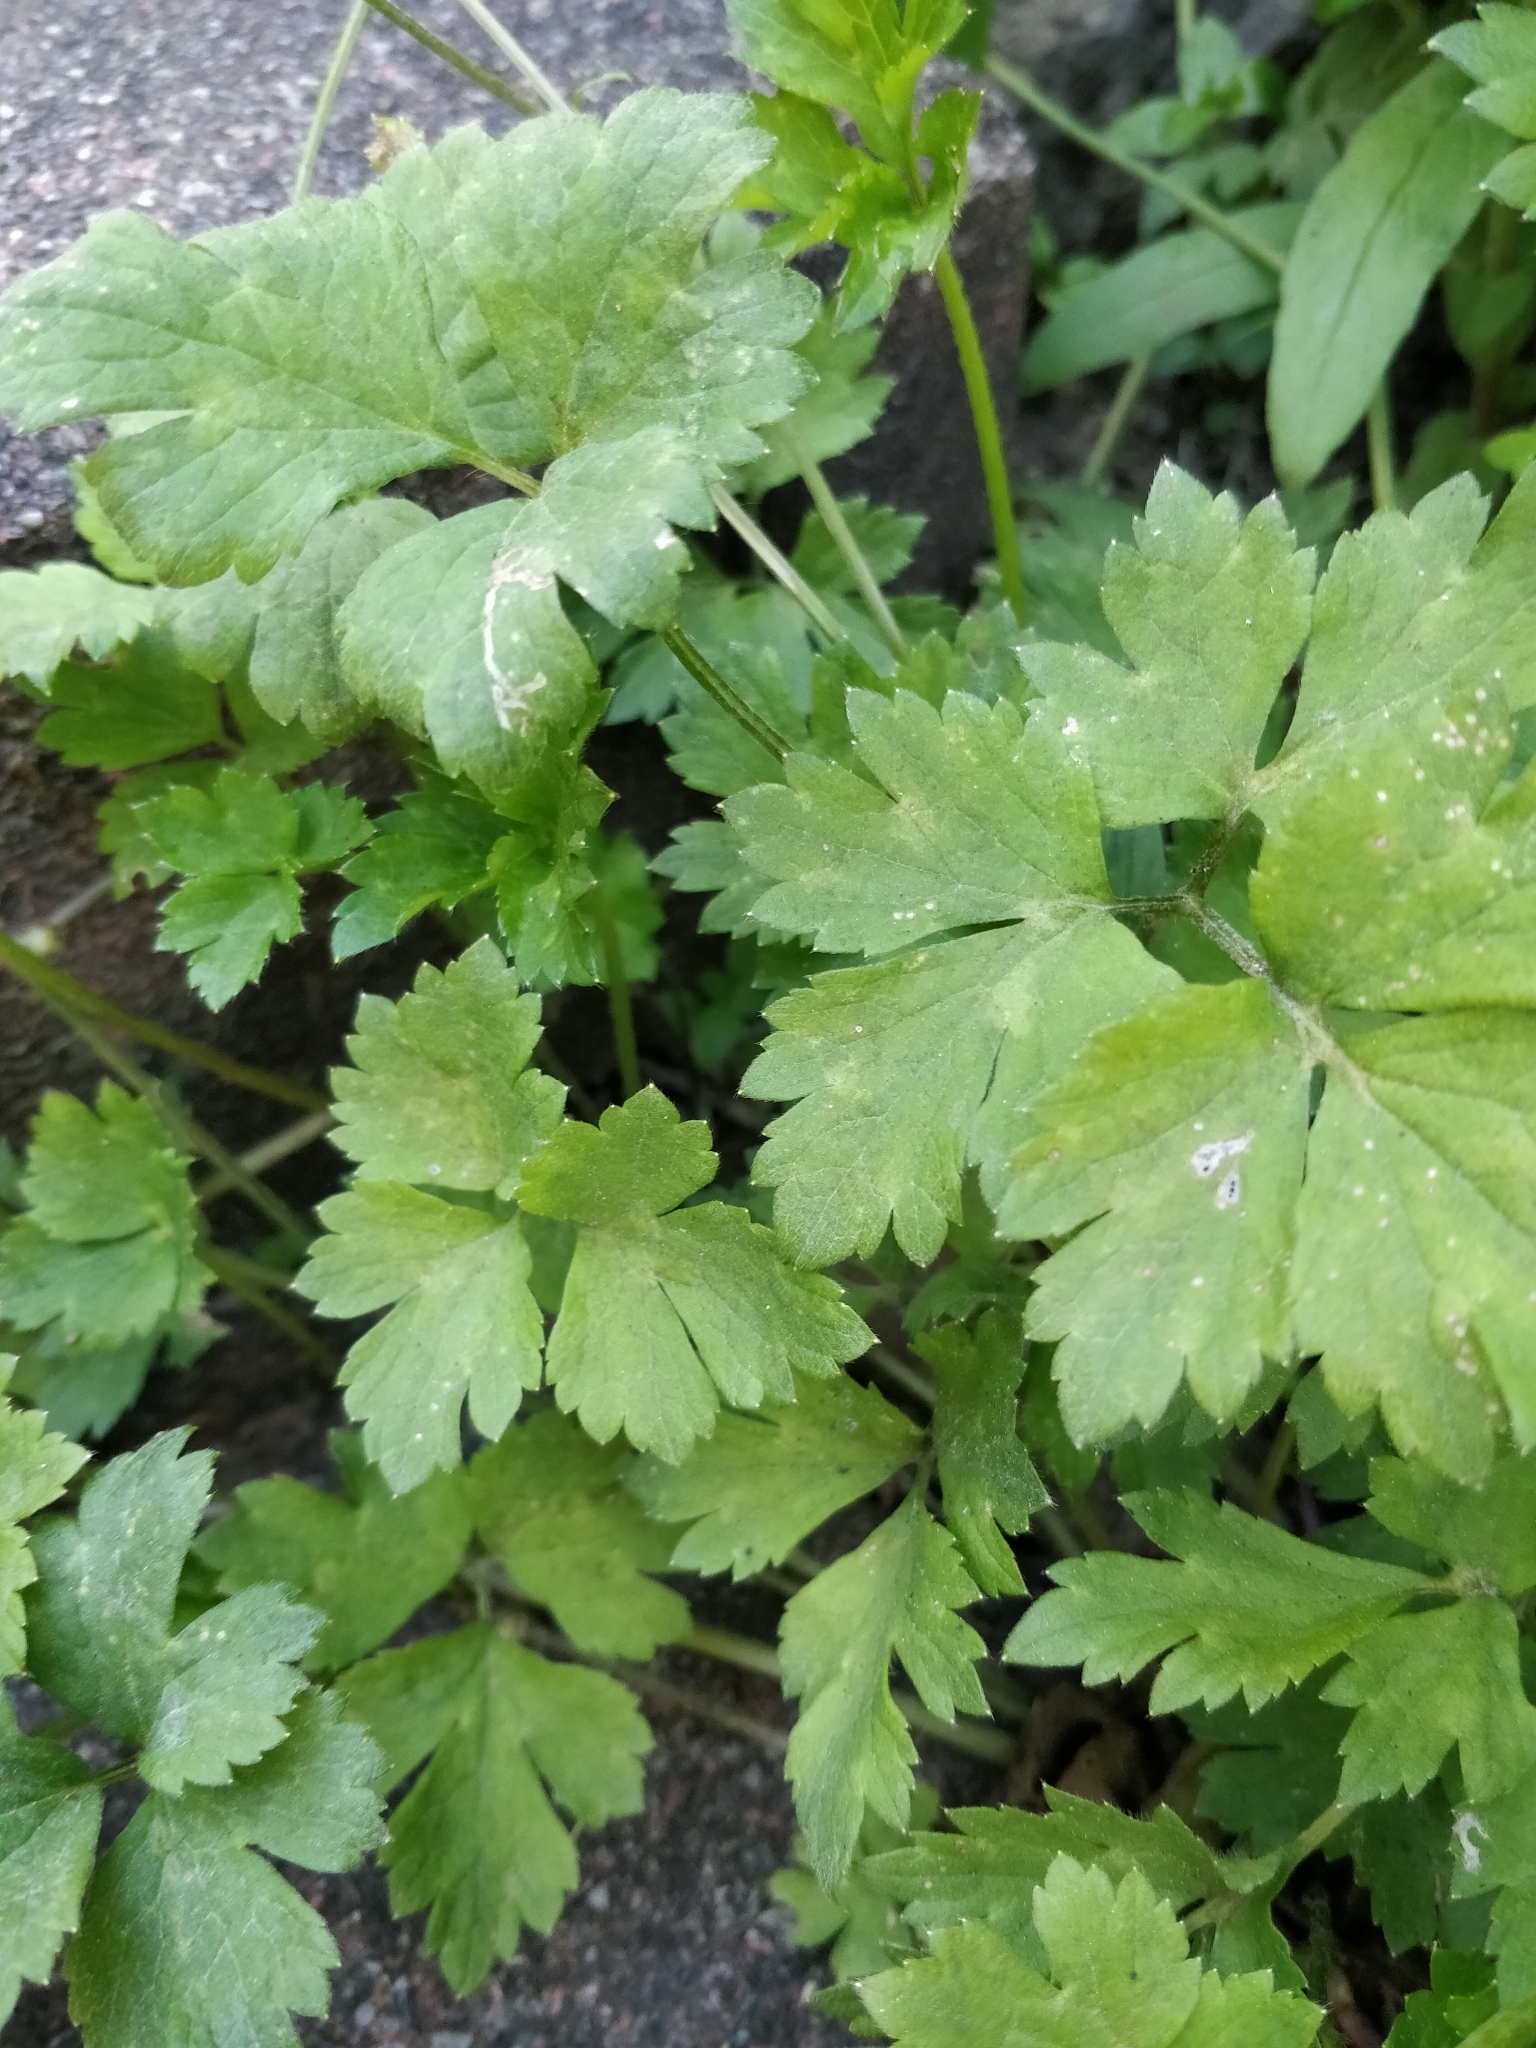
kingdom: Plantae
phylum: Tracheophyta
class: Magnoliopsida
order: Ranunculales
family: Ranunculaceae
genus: Ranunculus
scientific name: Ranunculus repens
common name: Creeping buttercup
